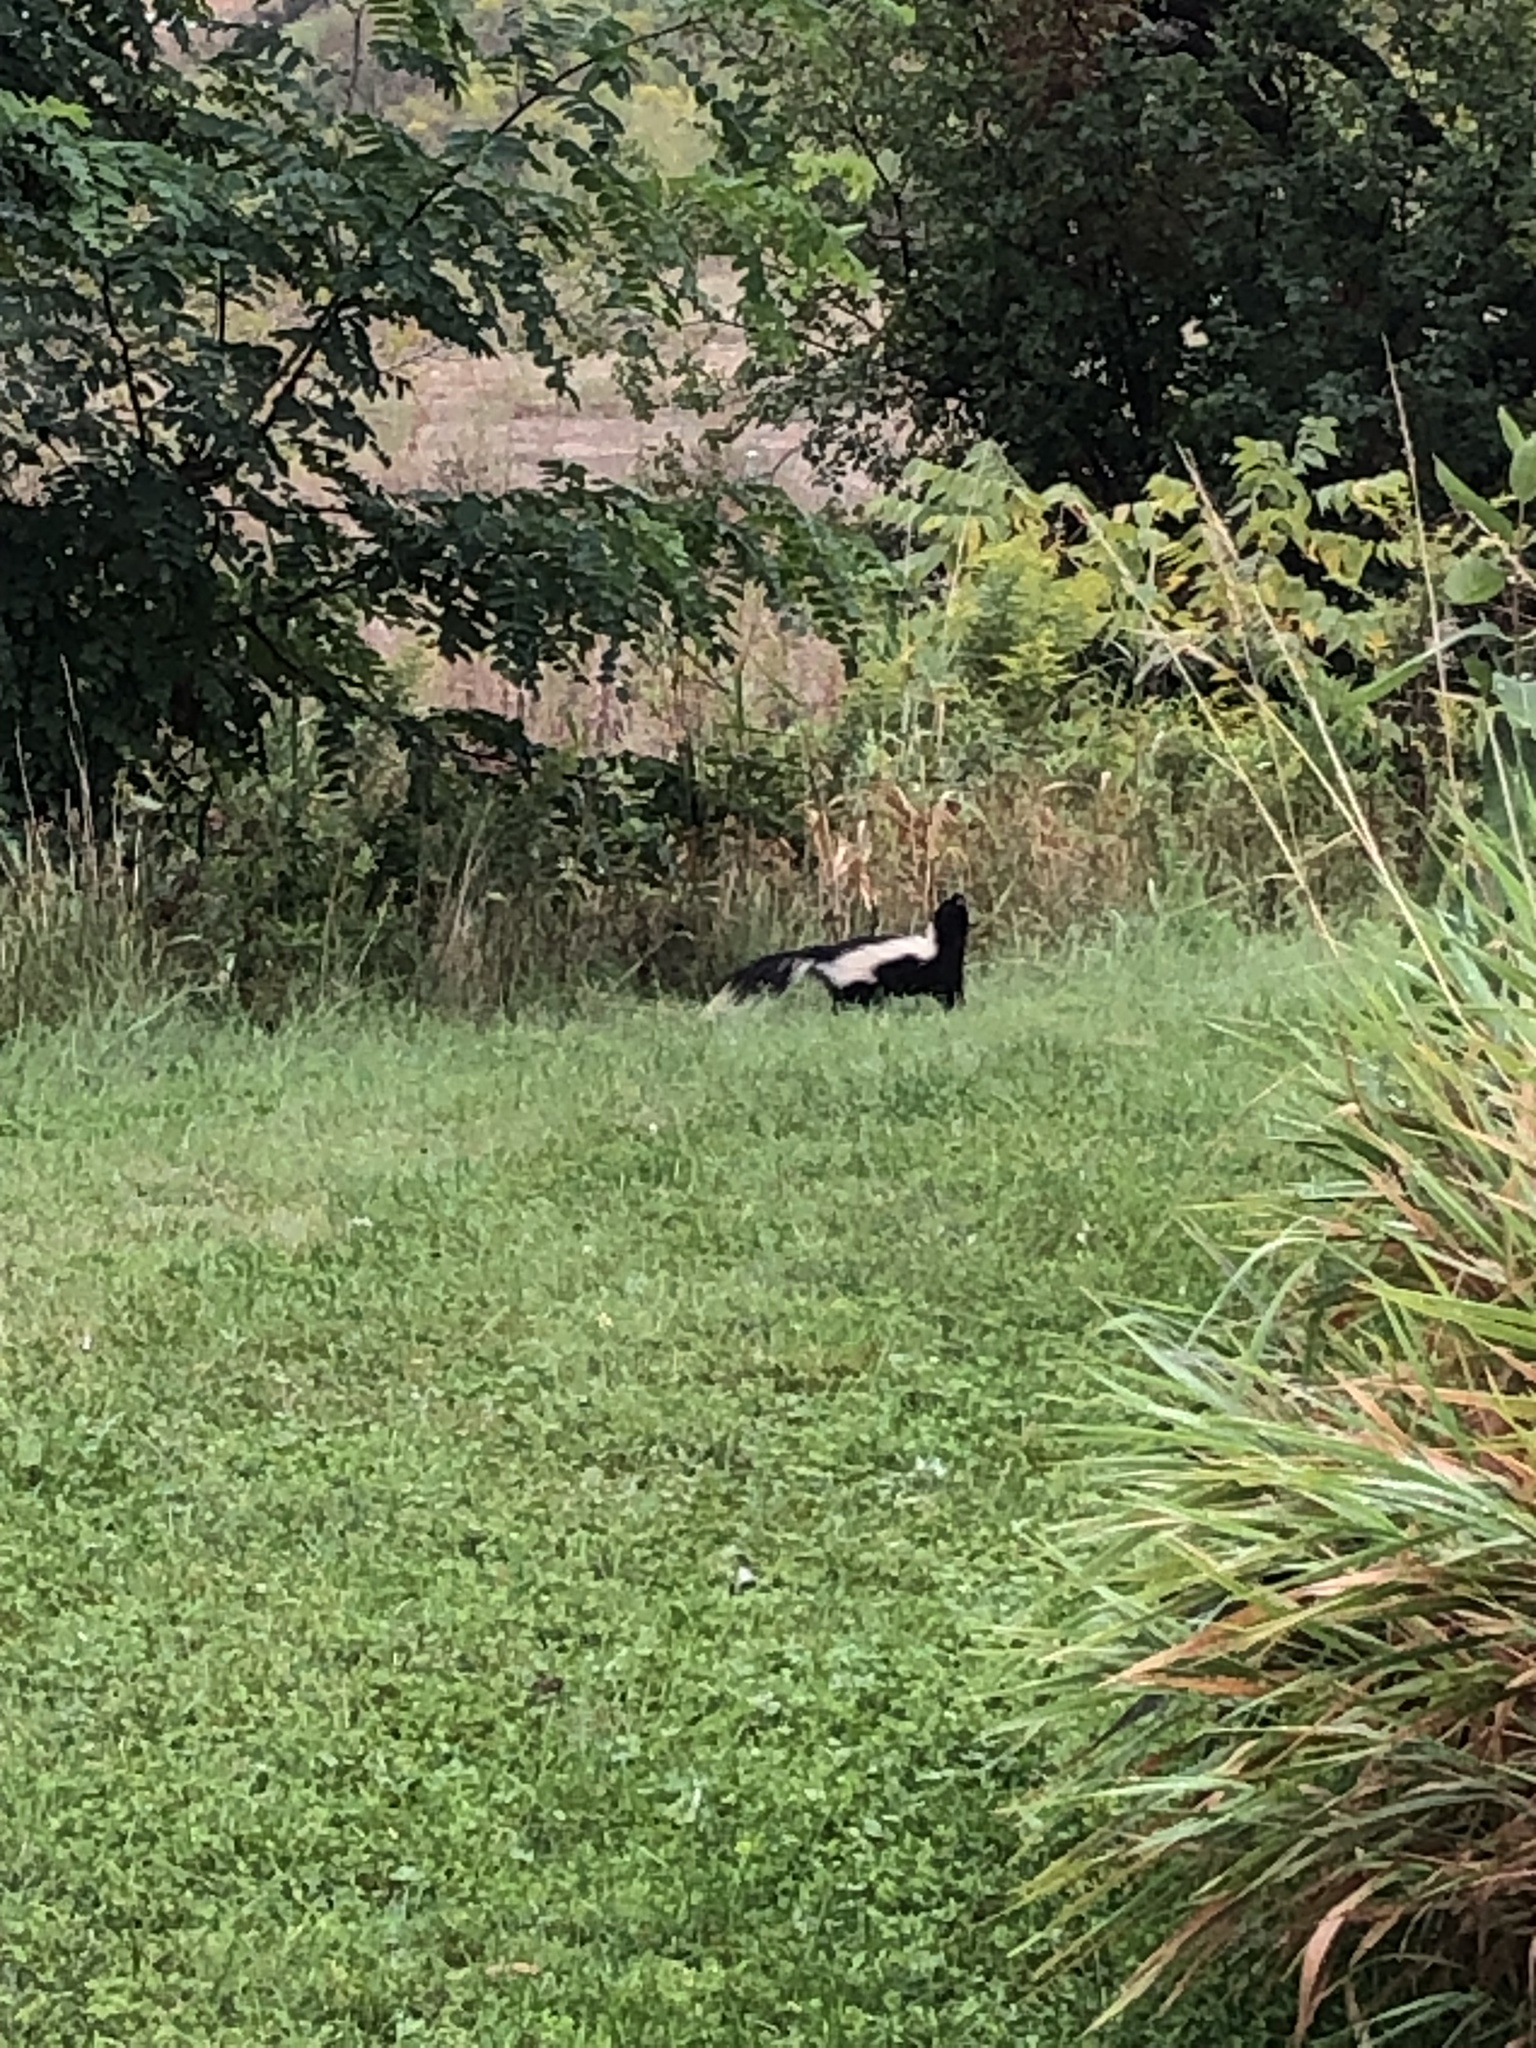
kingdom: Animalia
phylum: Chordata
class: Mammalia
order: Carnivora
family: Mephitidae
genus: Mephitis
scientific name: Mephitis mephitis
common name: Striped skunk
